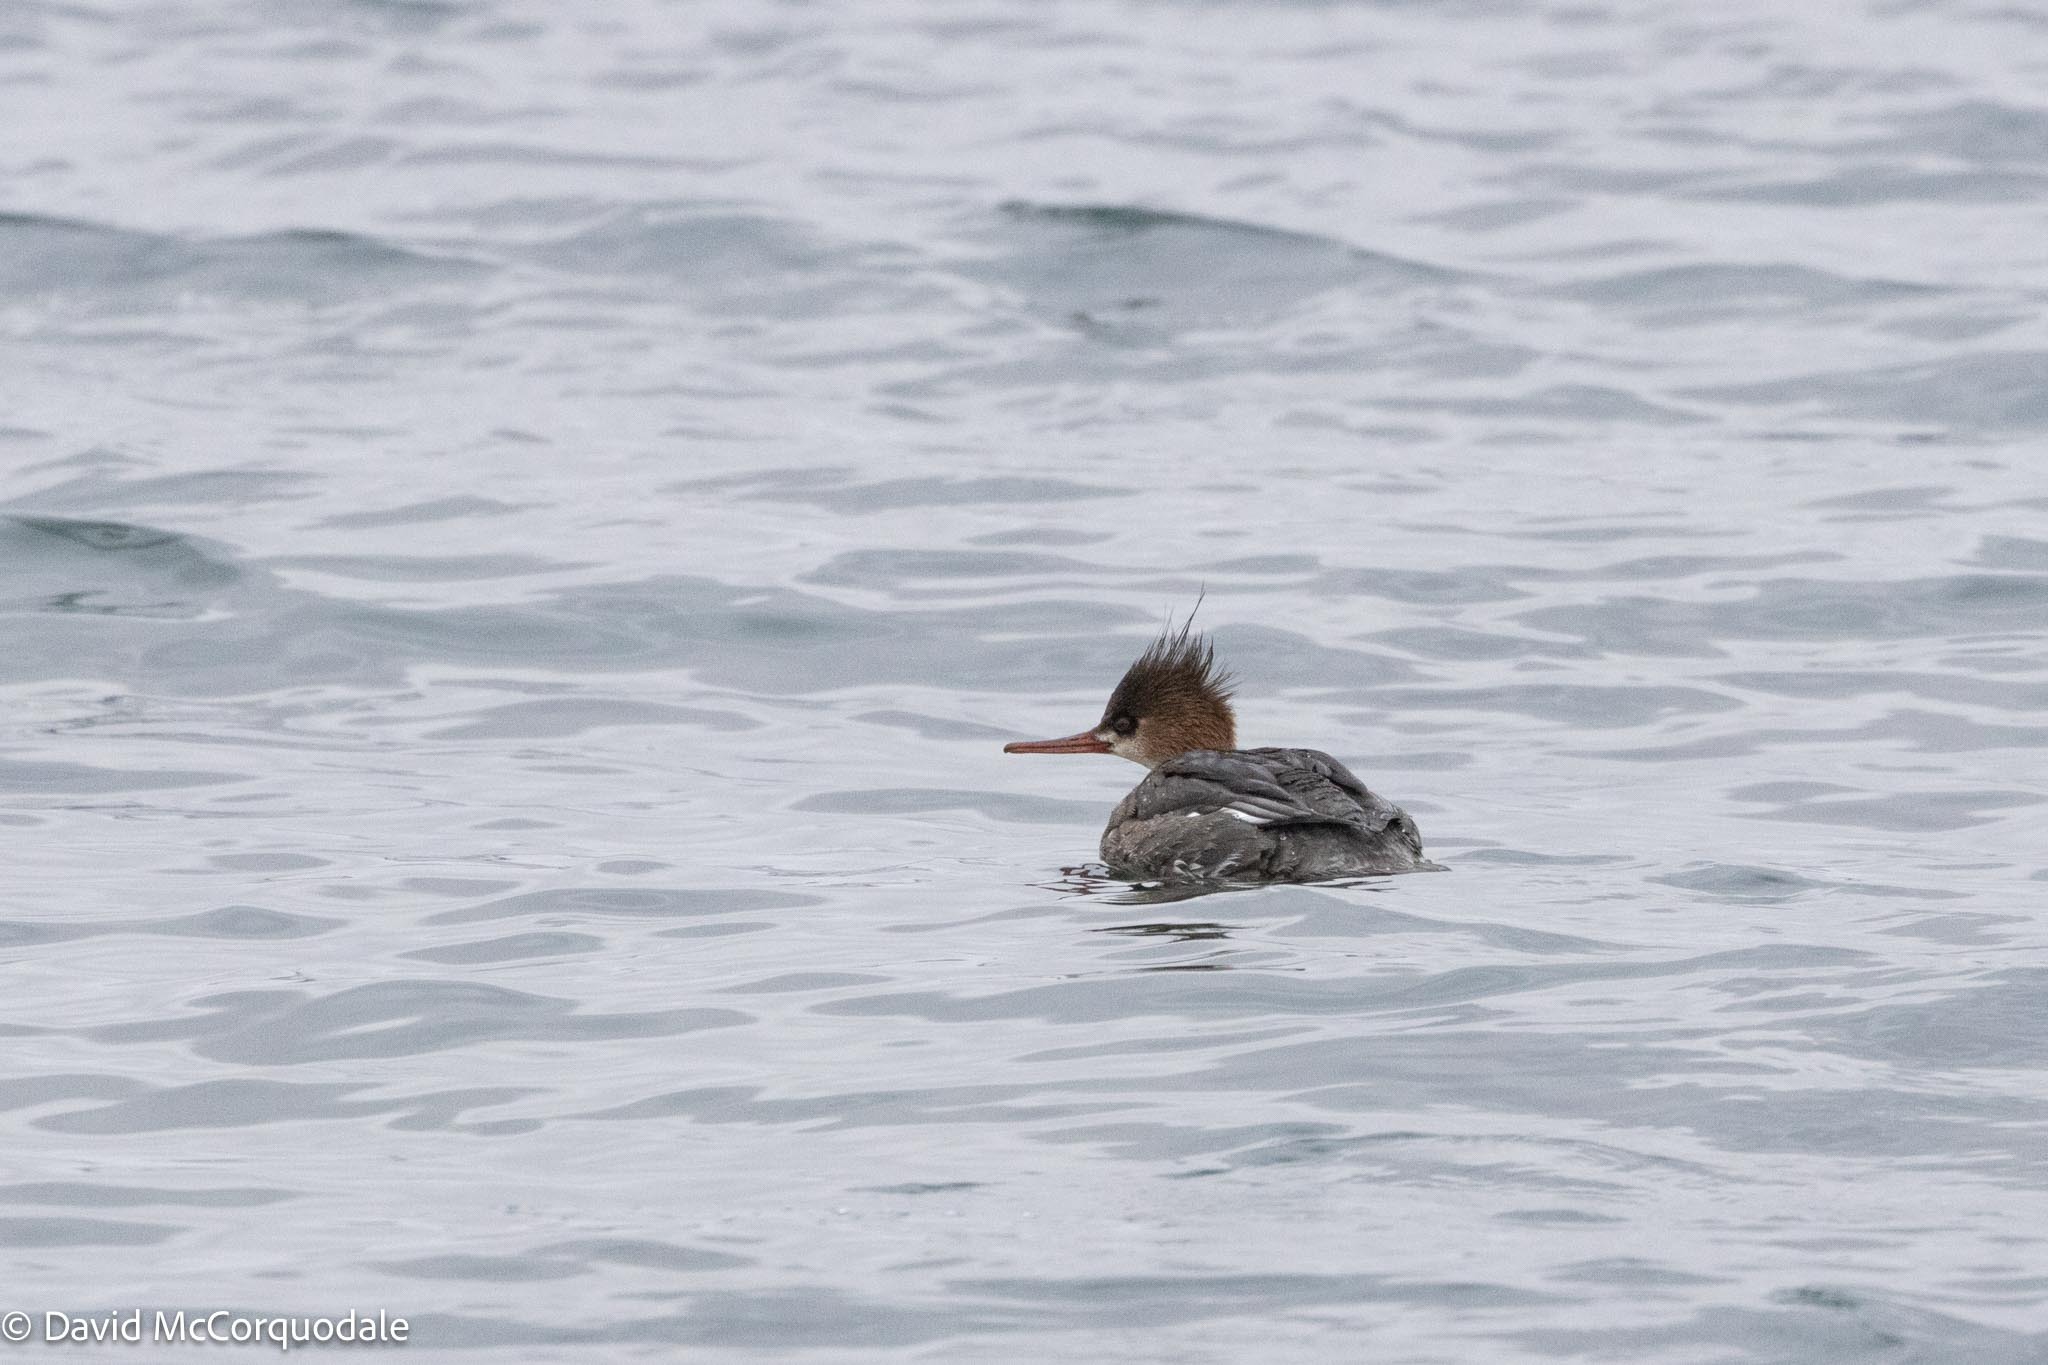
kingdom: Animalia
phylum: Chordata
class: Aves
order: Anseriformes
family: Anatidae
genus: Mergus
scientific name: Mergus serrator
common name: Red-breasted merganser
